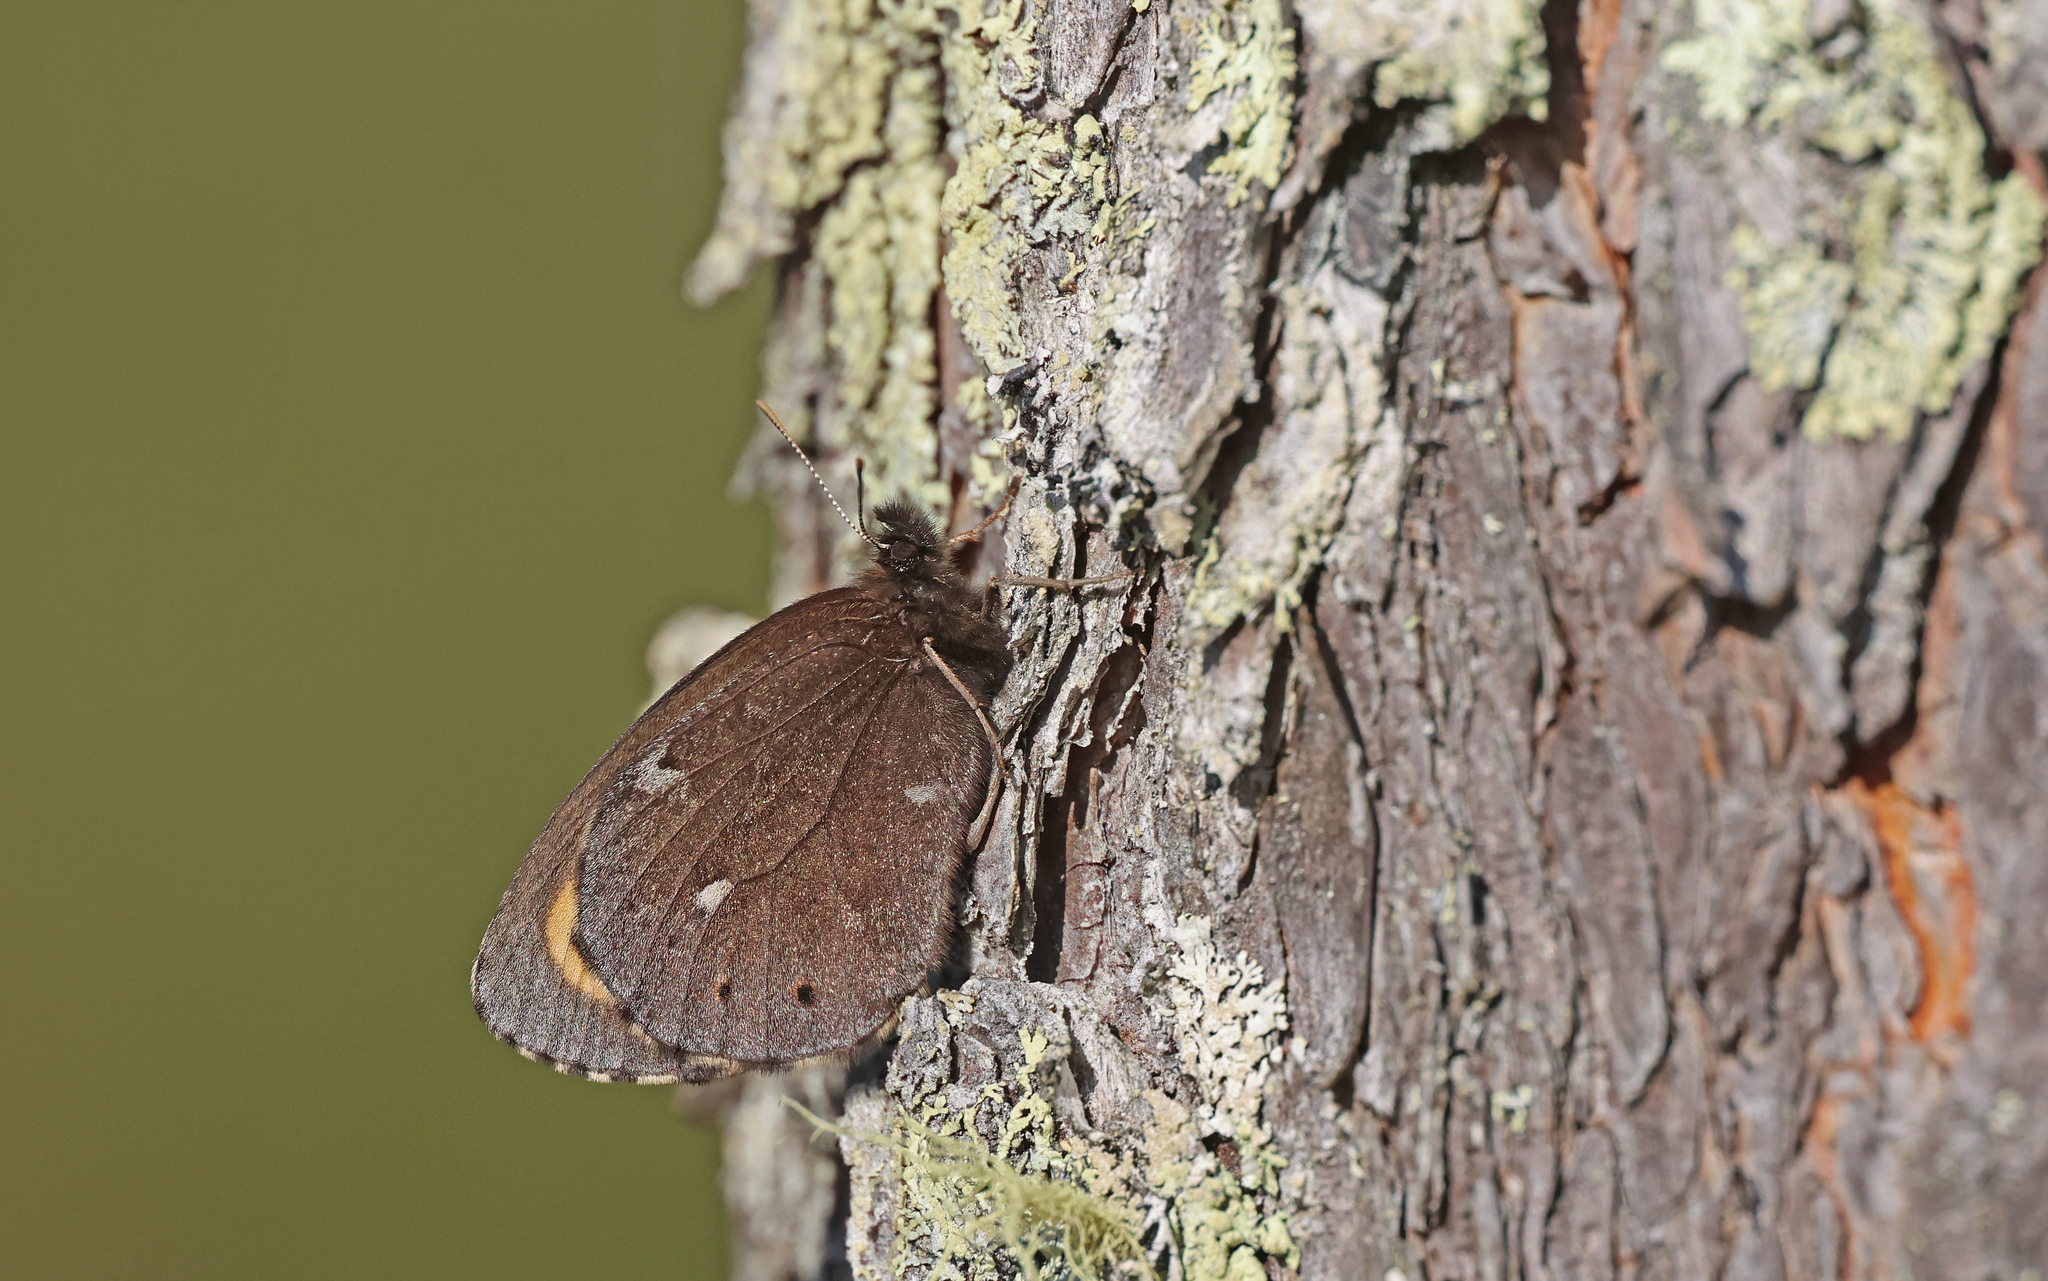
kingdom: Animalia
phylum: Arthropoda
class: Insecta
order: Lepidoptera
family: Nymphalidae
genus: Erebia
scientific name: Erebia embla
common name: Lapland ringlet
